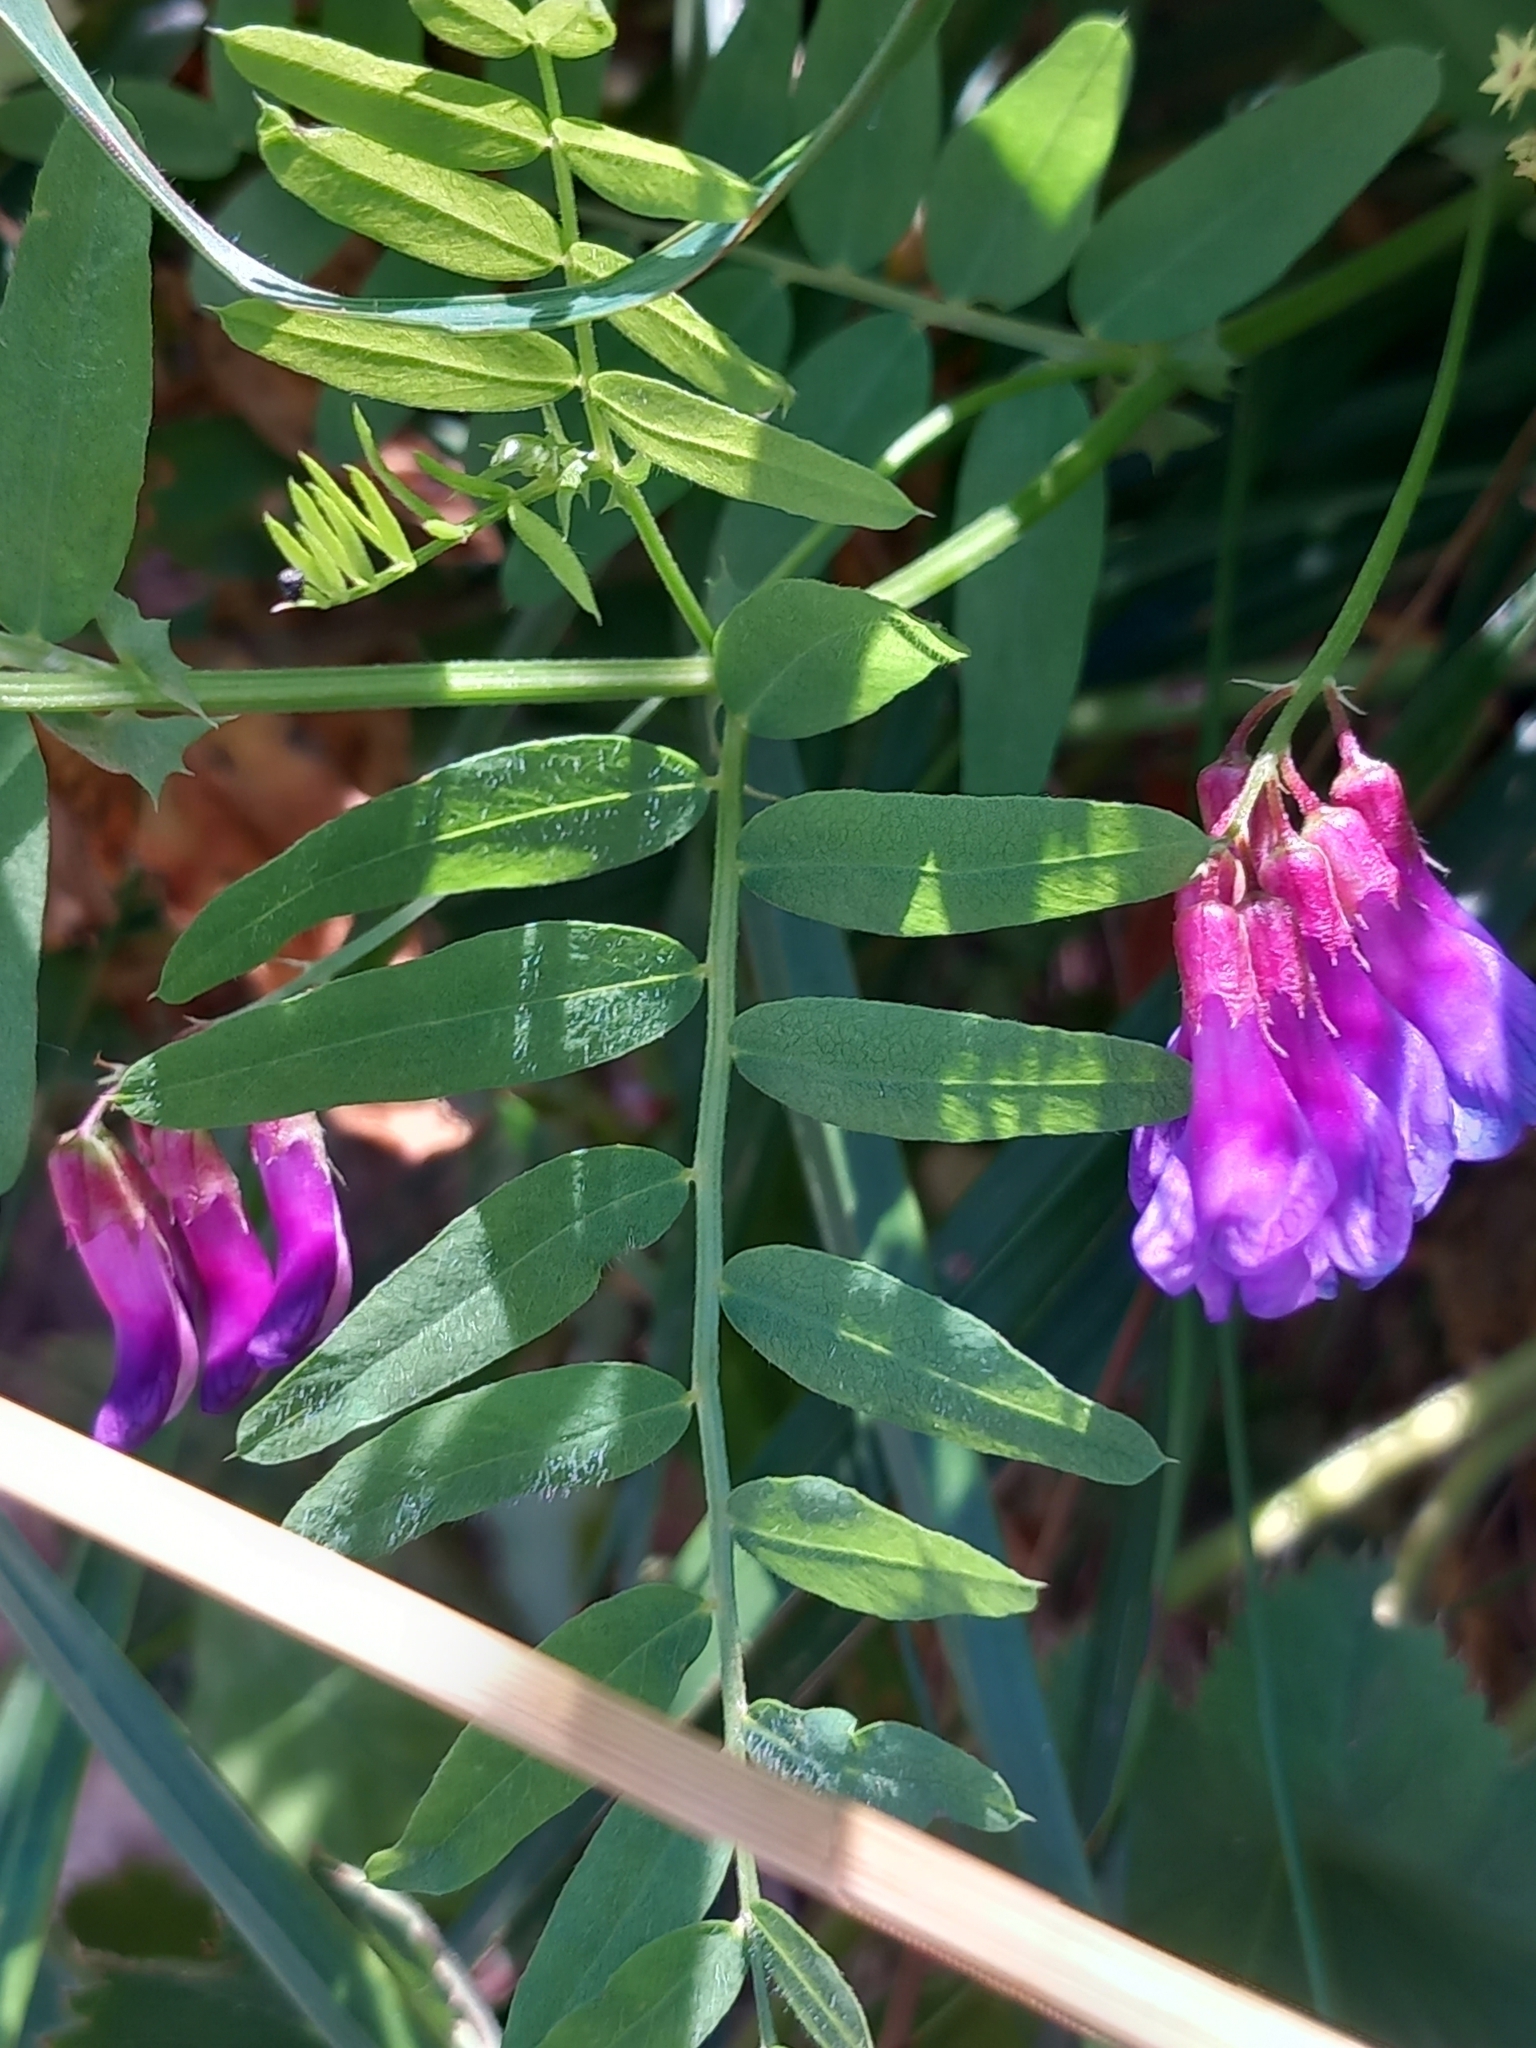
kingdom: Plantae
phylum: Tracheophyta
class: Magnoliopsida
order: Fabales
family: Fabaceae
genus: Vicia
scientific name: Vicia cassubica
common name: Danzig vetch
